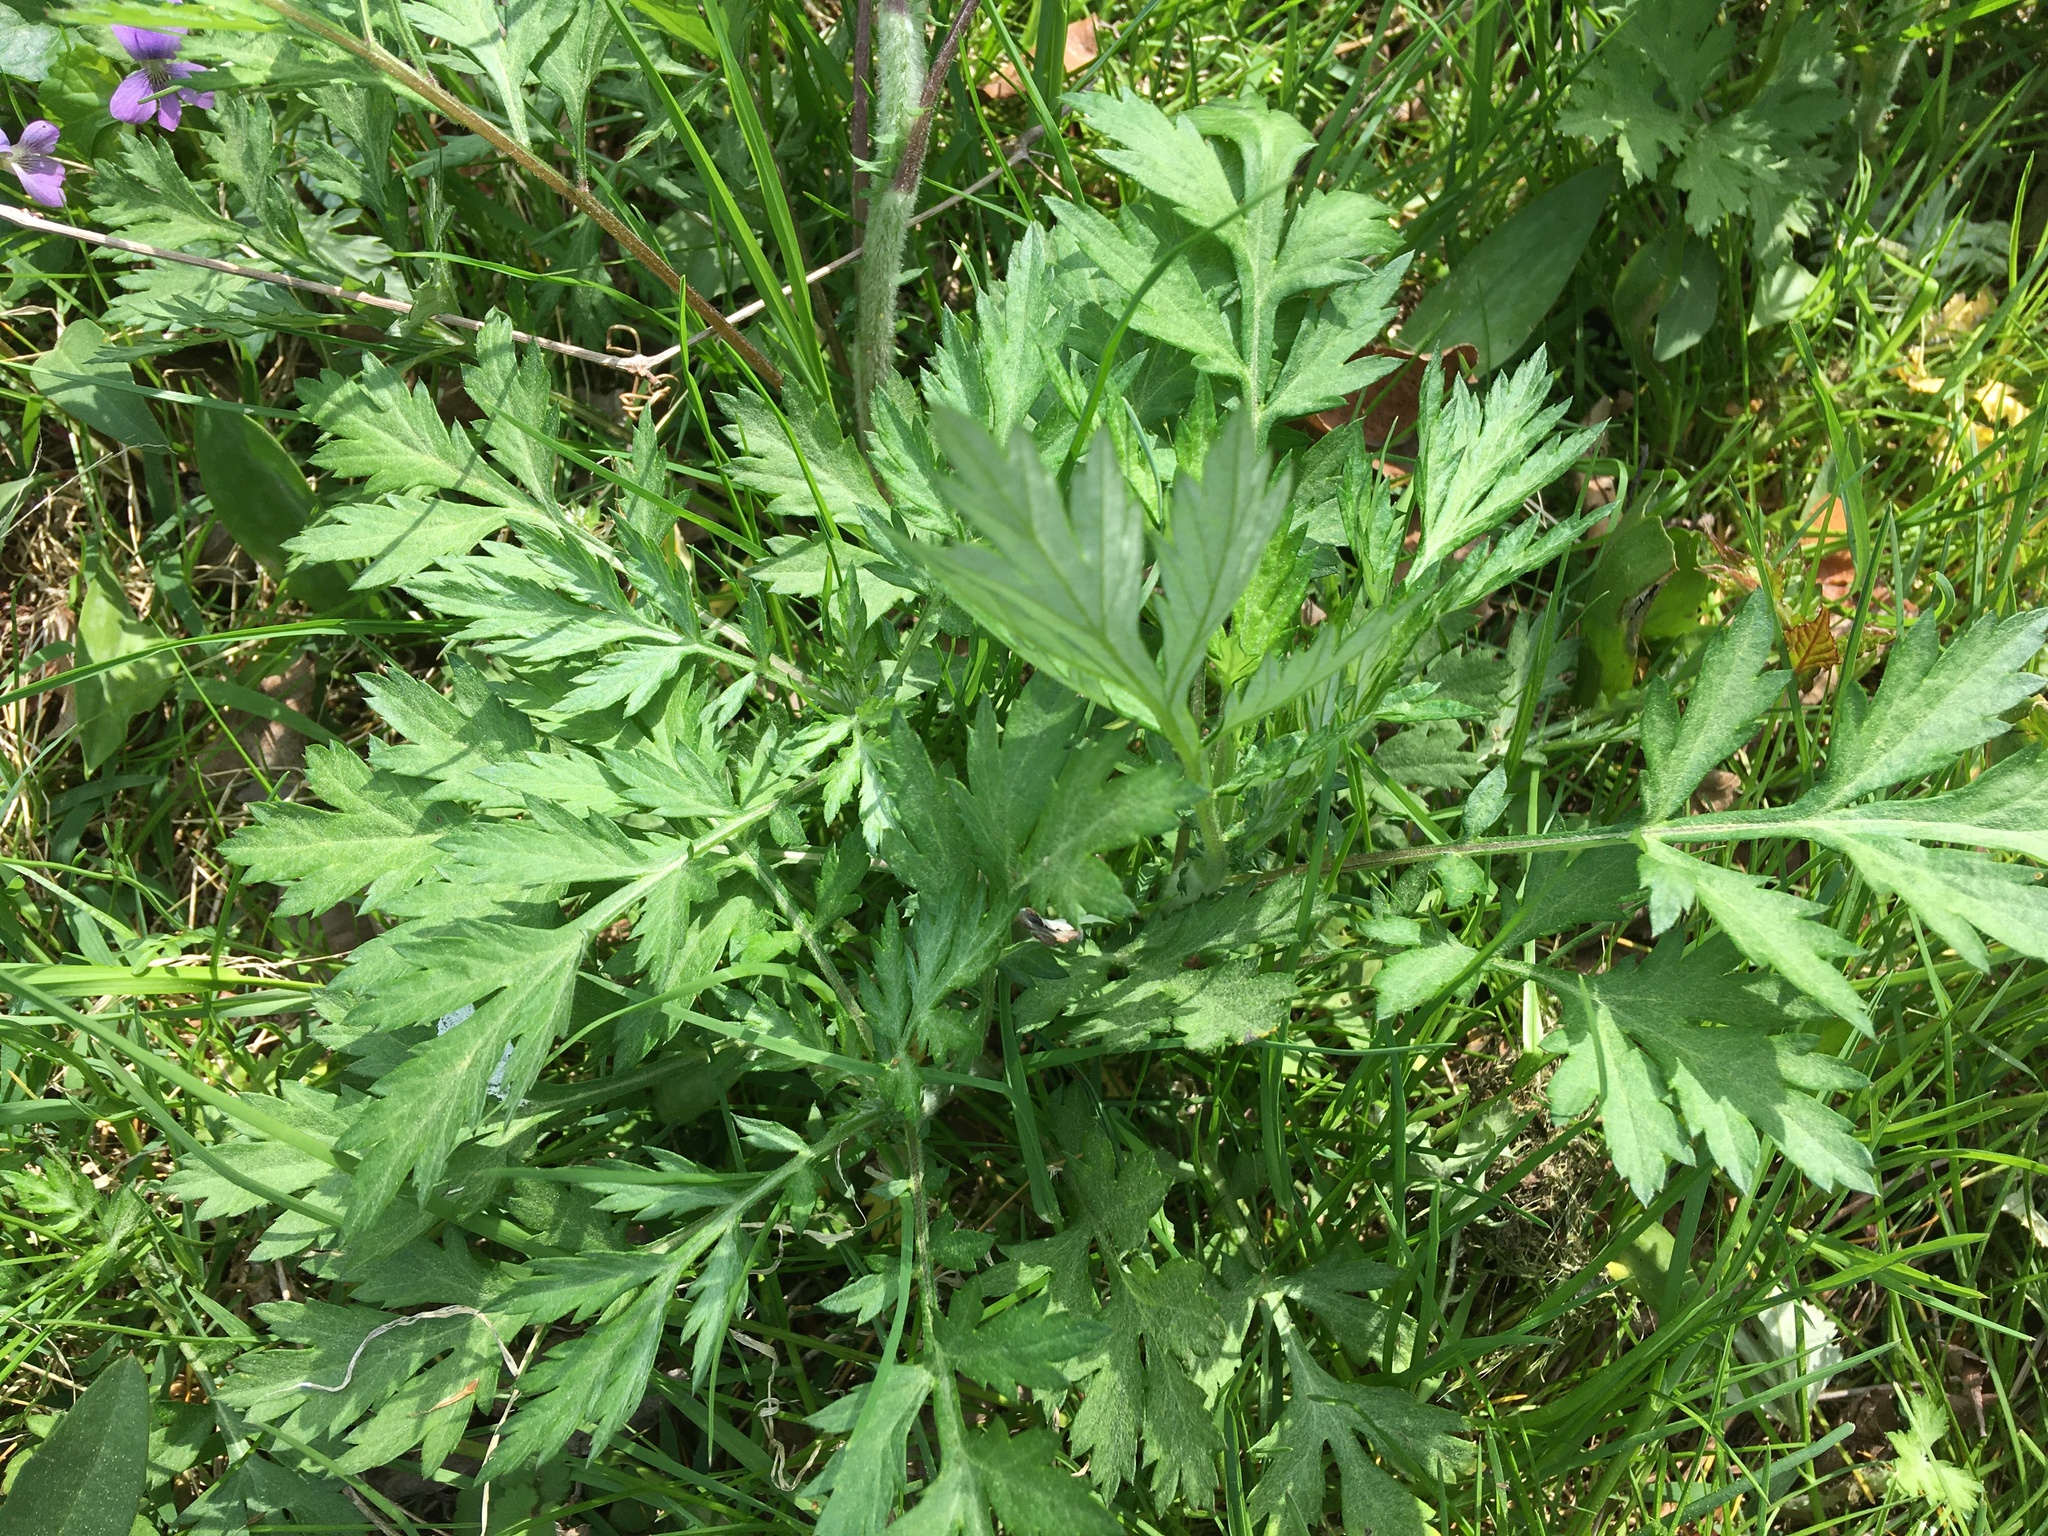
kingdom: Plantae
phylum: Tracheophyta
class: Magnoliopsida
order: Asterales
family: Asteraceae
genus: Artemisia
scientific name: Artemisia vulgaris
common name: Mugwort
